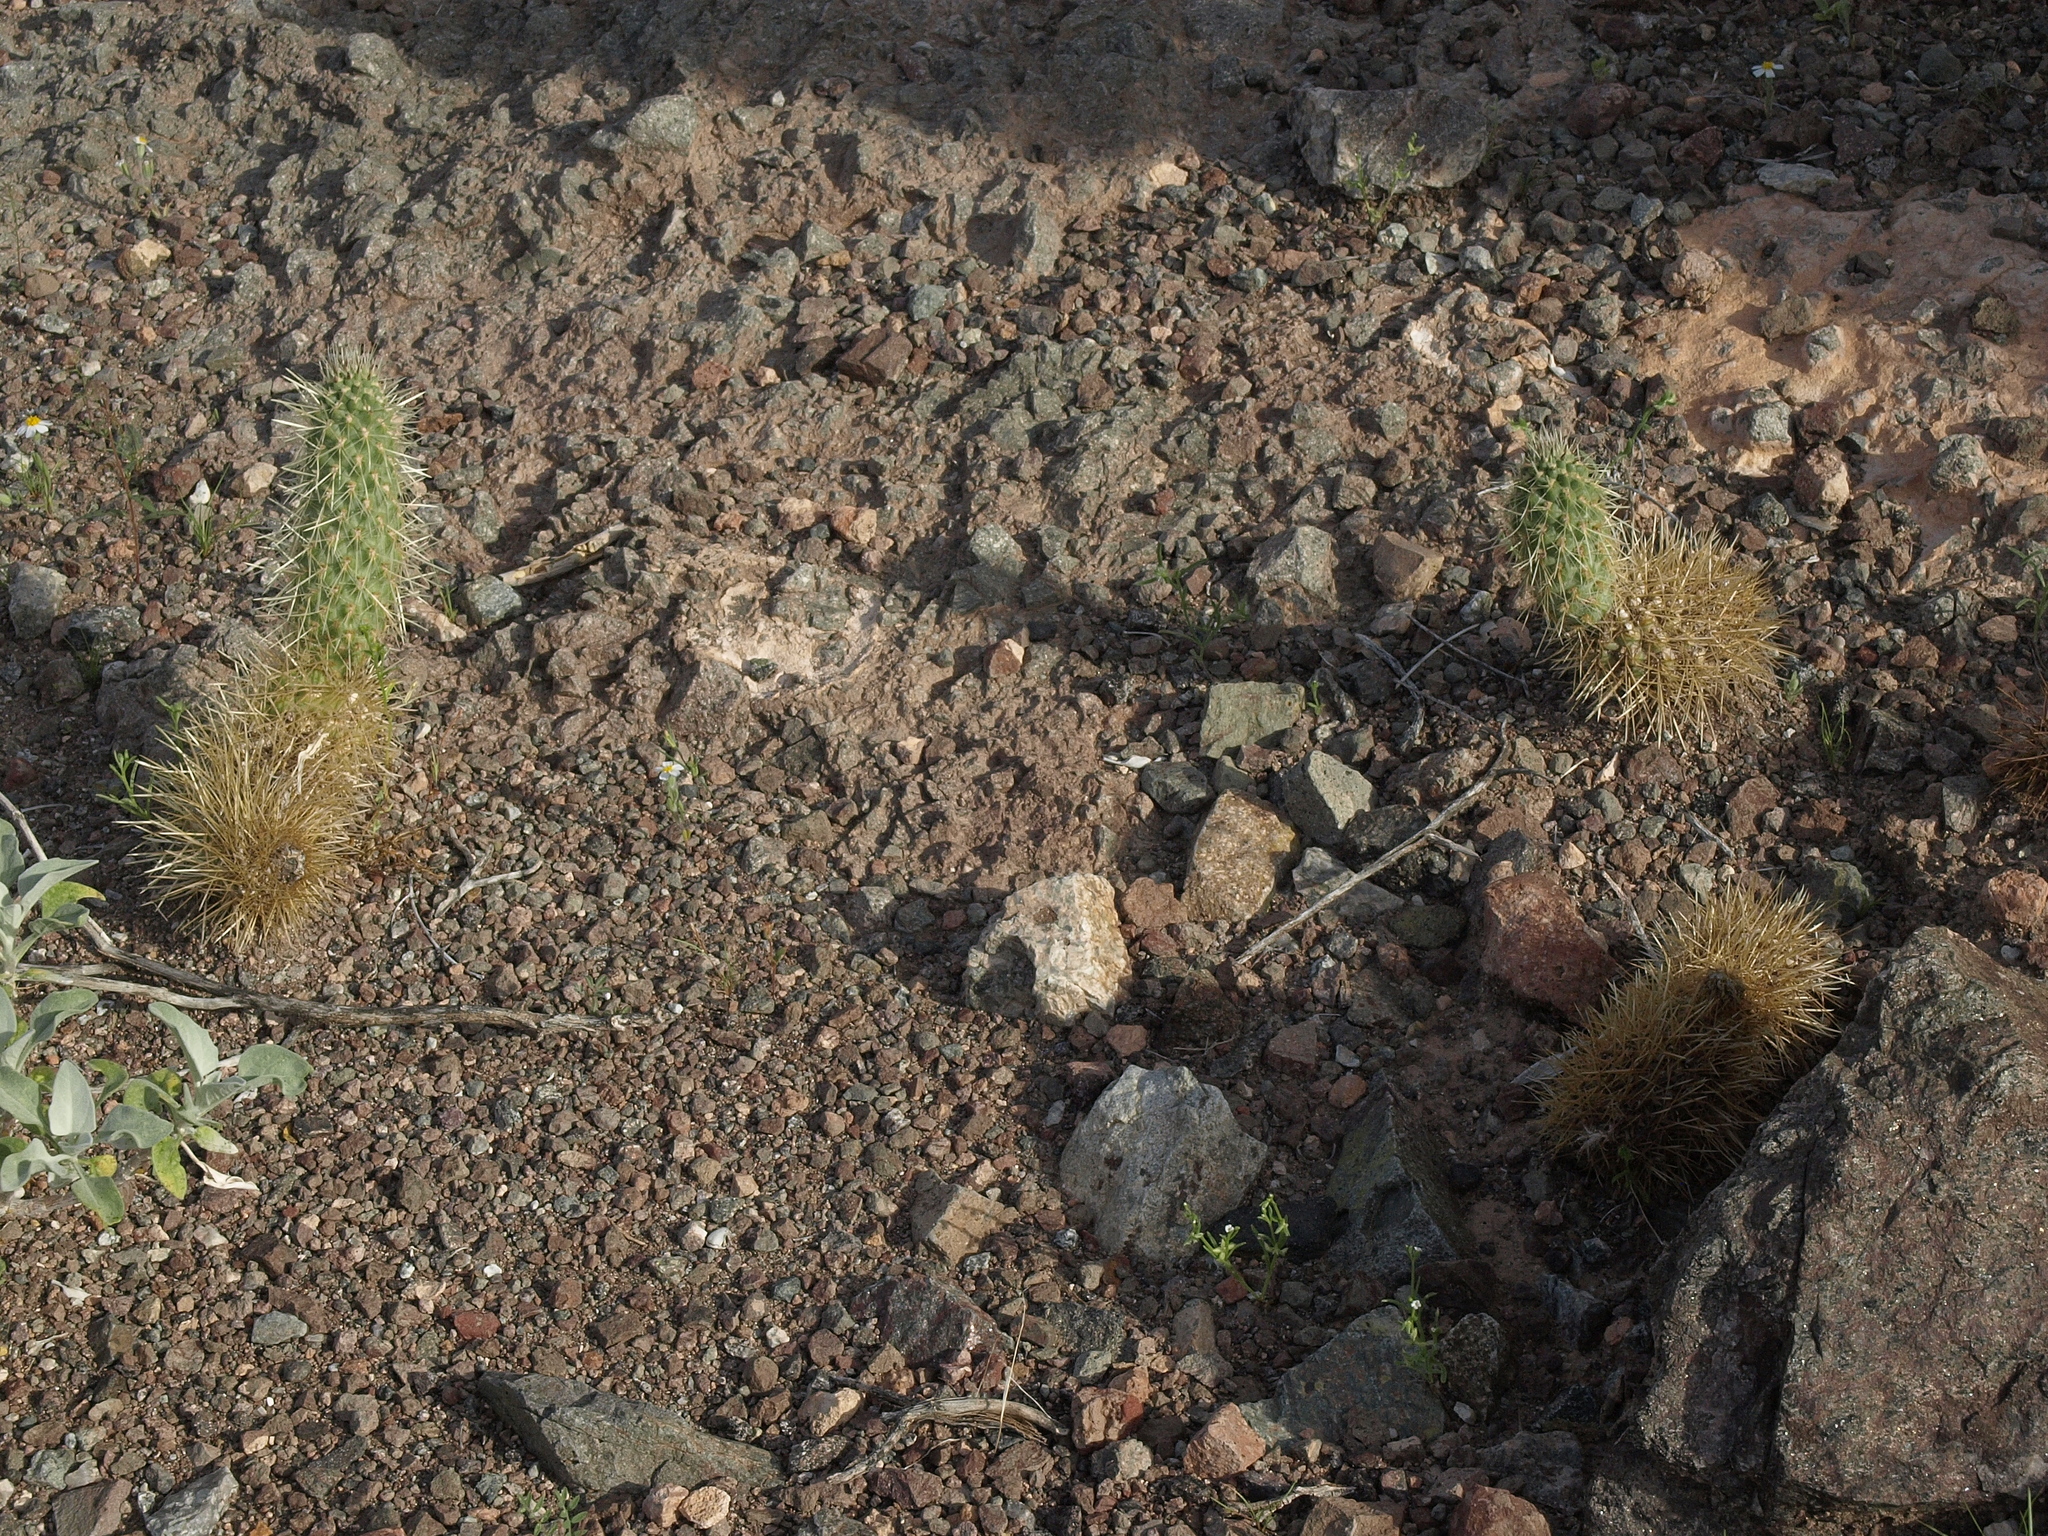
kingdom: Plantae
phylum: Tracheophyta
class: Magnoliopsida
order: Caryophyllales
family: Cactaceae
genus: Cylindropuntia
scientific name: Cylindropuntia fosbergii
